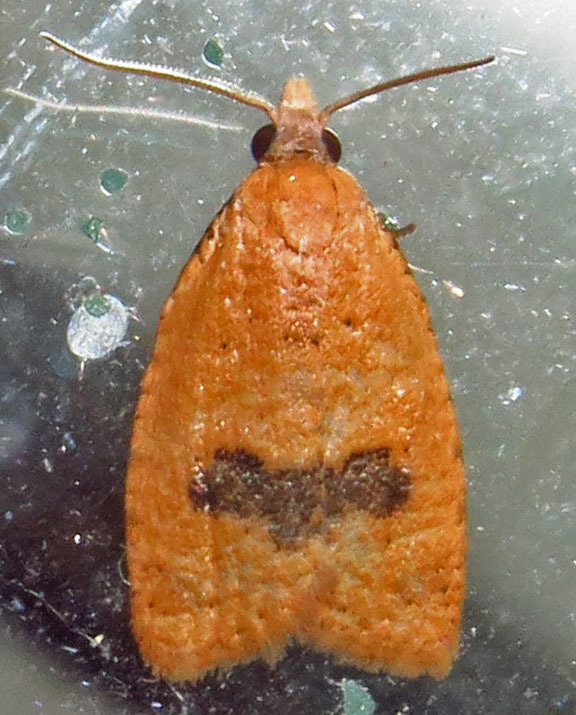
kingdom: Animalia
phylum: Arthropoda
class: Insecta
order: Lepidoptera
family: Tortricidae
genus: Sparganothoides
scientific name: Sparganothoides lentiginosana
